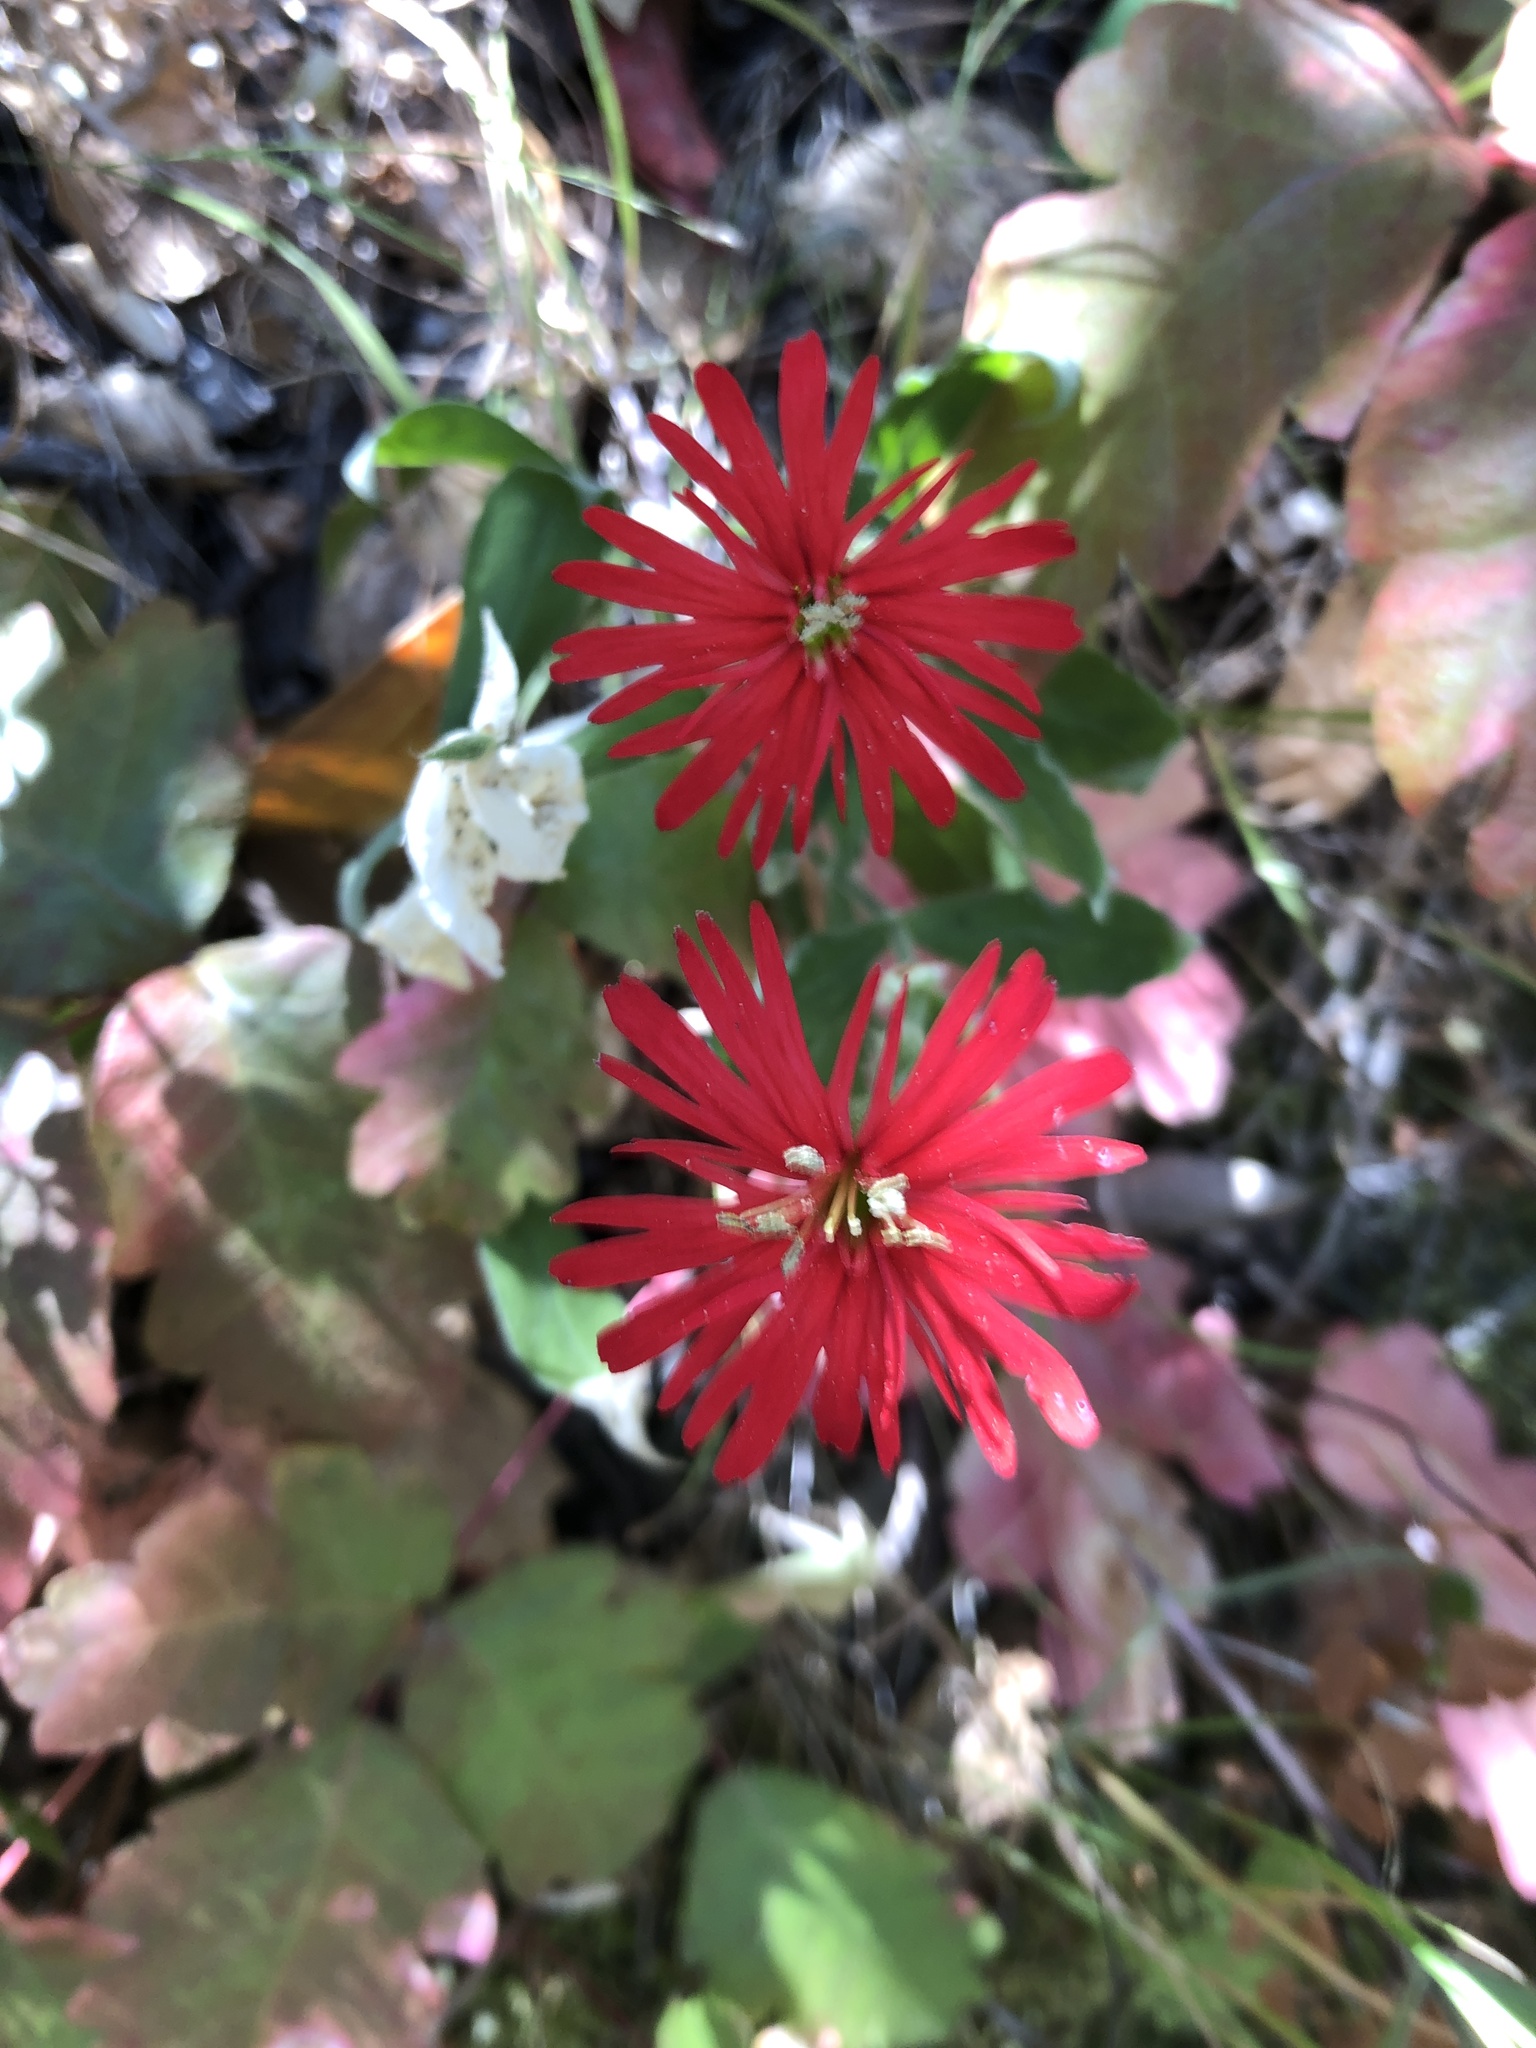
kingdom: Plantae
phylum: Tracheophyta
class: Magnoliopsida
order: Caryophyllales
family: Caryophyllaceae
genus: Silene
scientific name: Silene laciniata
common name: Indian-pink
